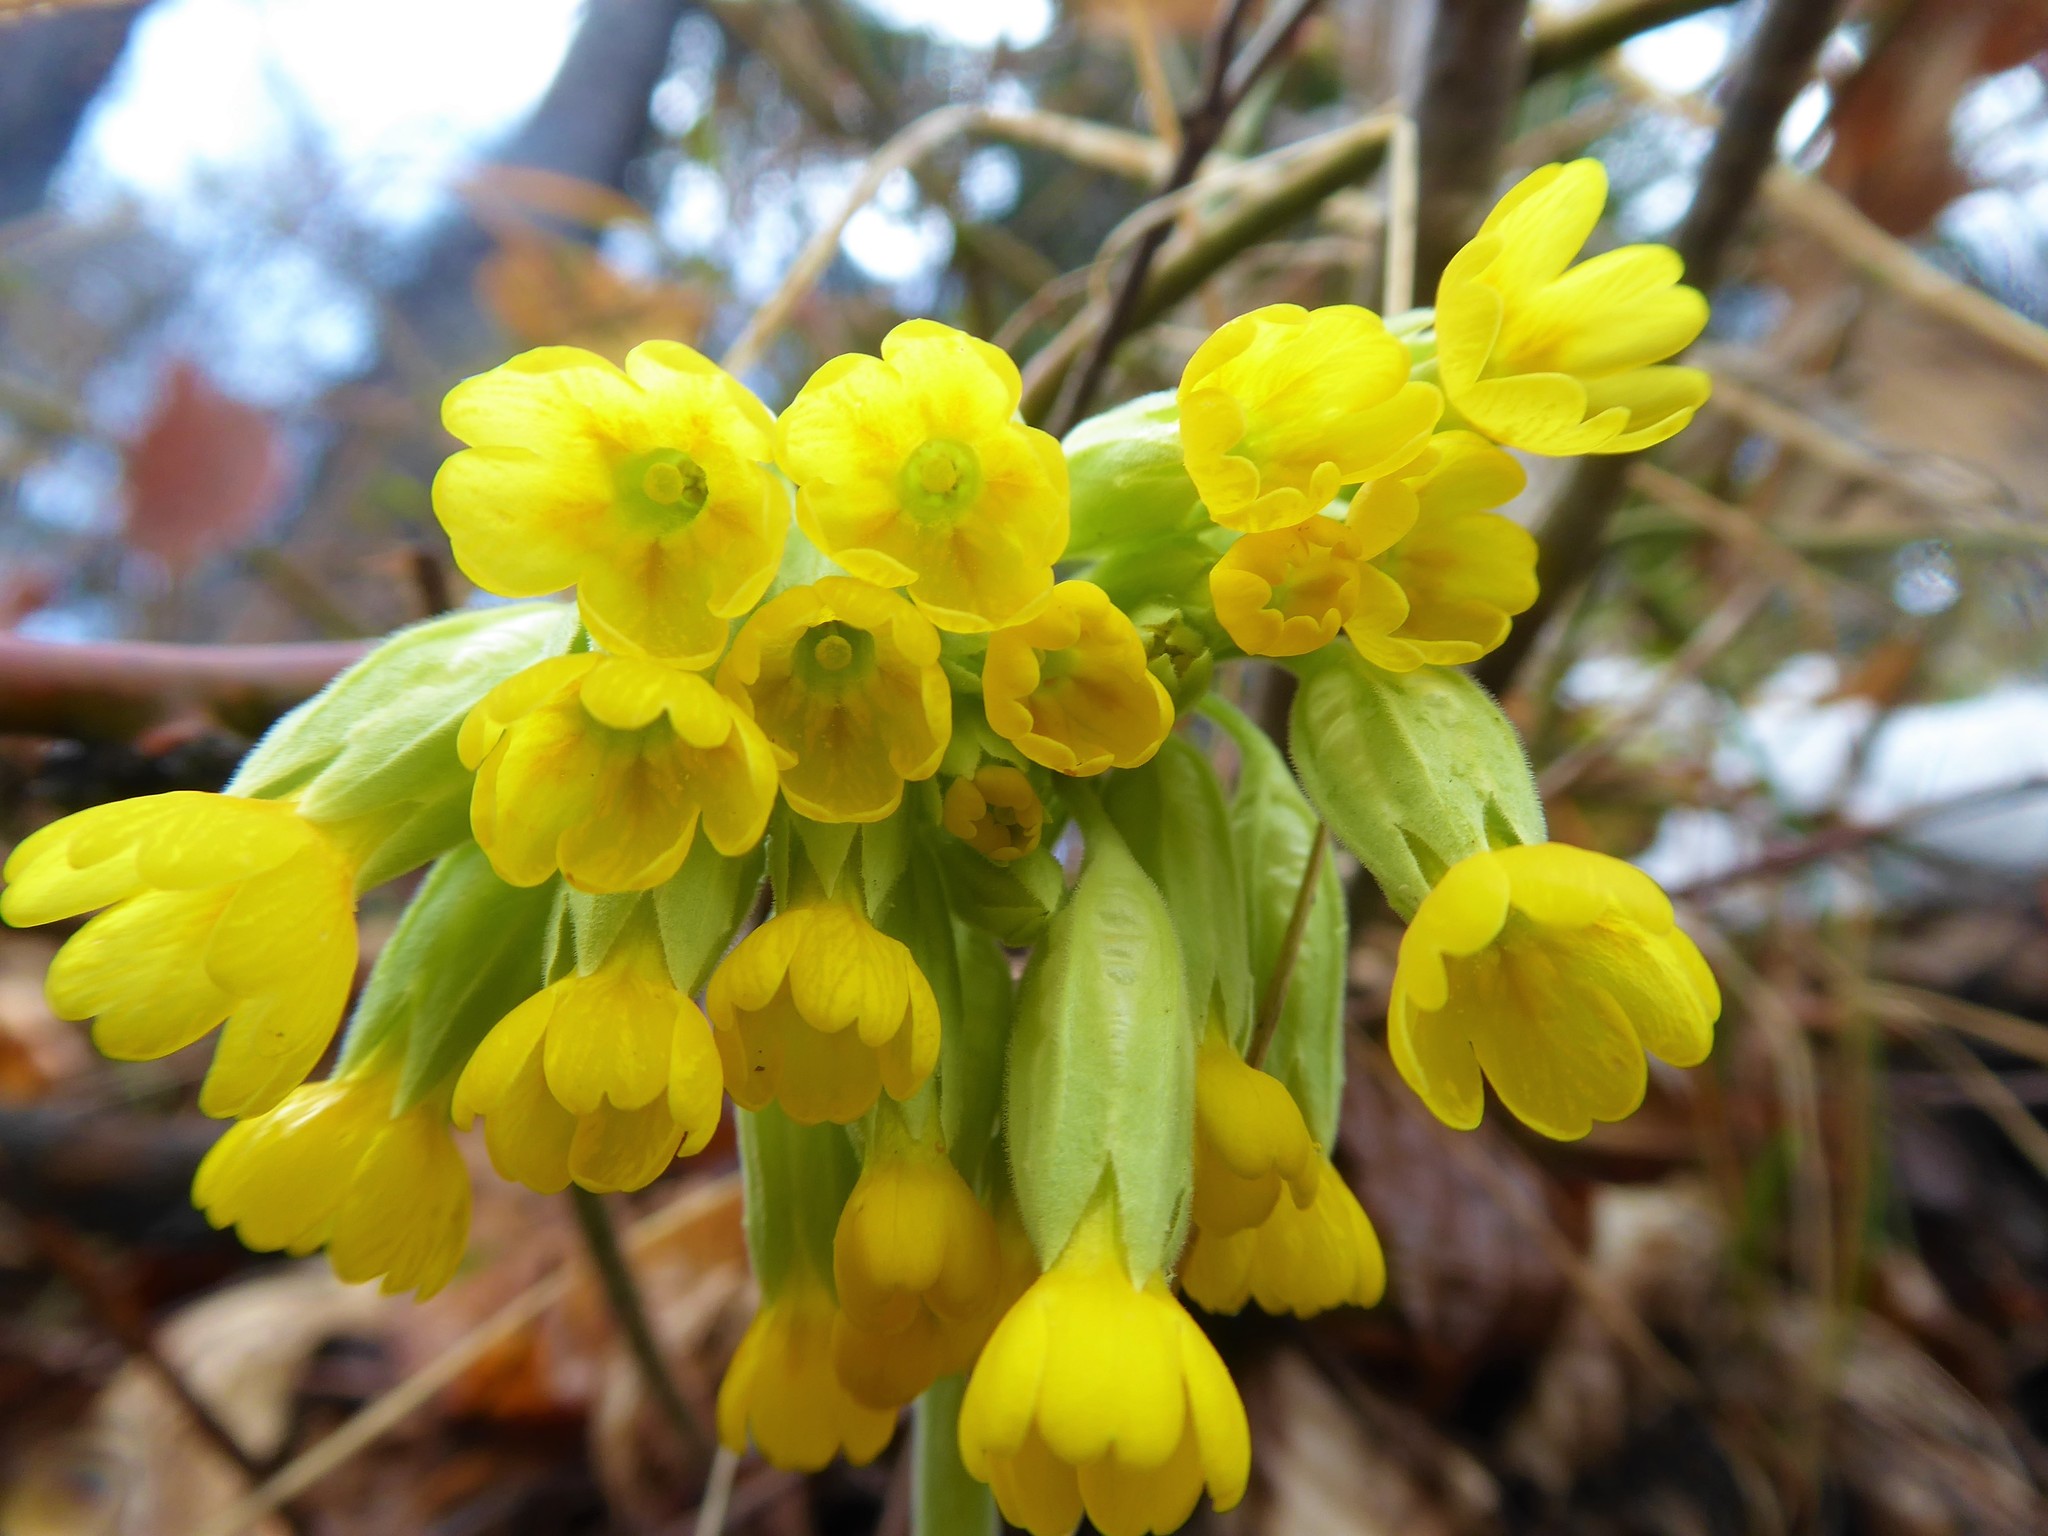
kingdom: Plantae
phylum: Tracheophyta
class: Magnoliopsida
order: Ericales
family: Primulaceae
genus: Primula
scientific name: Primula veris
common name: Cowslip
